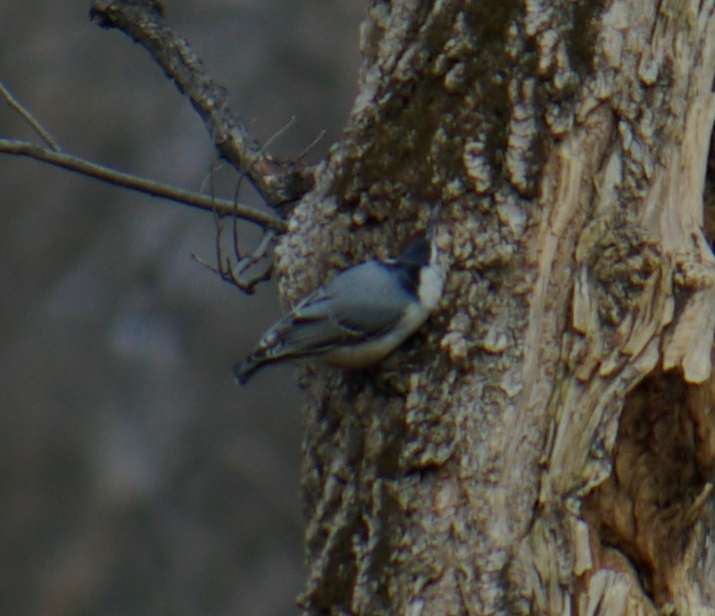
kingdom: Animalia
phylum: Chordata
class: Aves
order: Passeriformes
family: Sittidae
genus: Sitta
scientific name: Sitta carolinensis
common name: White-breasted nuthatch
